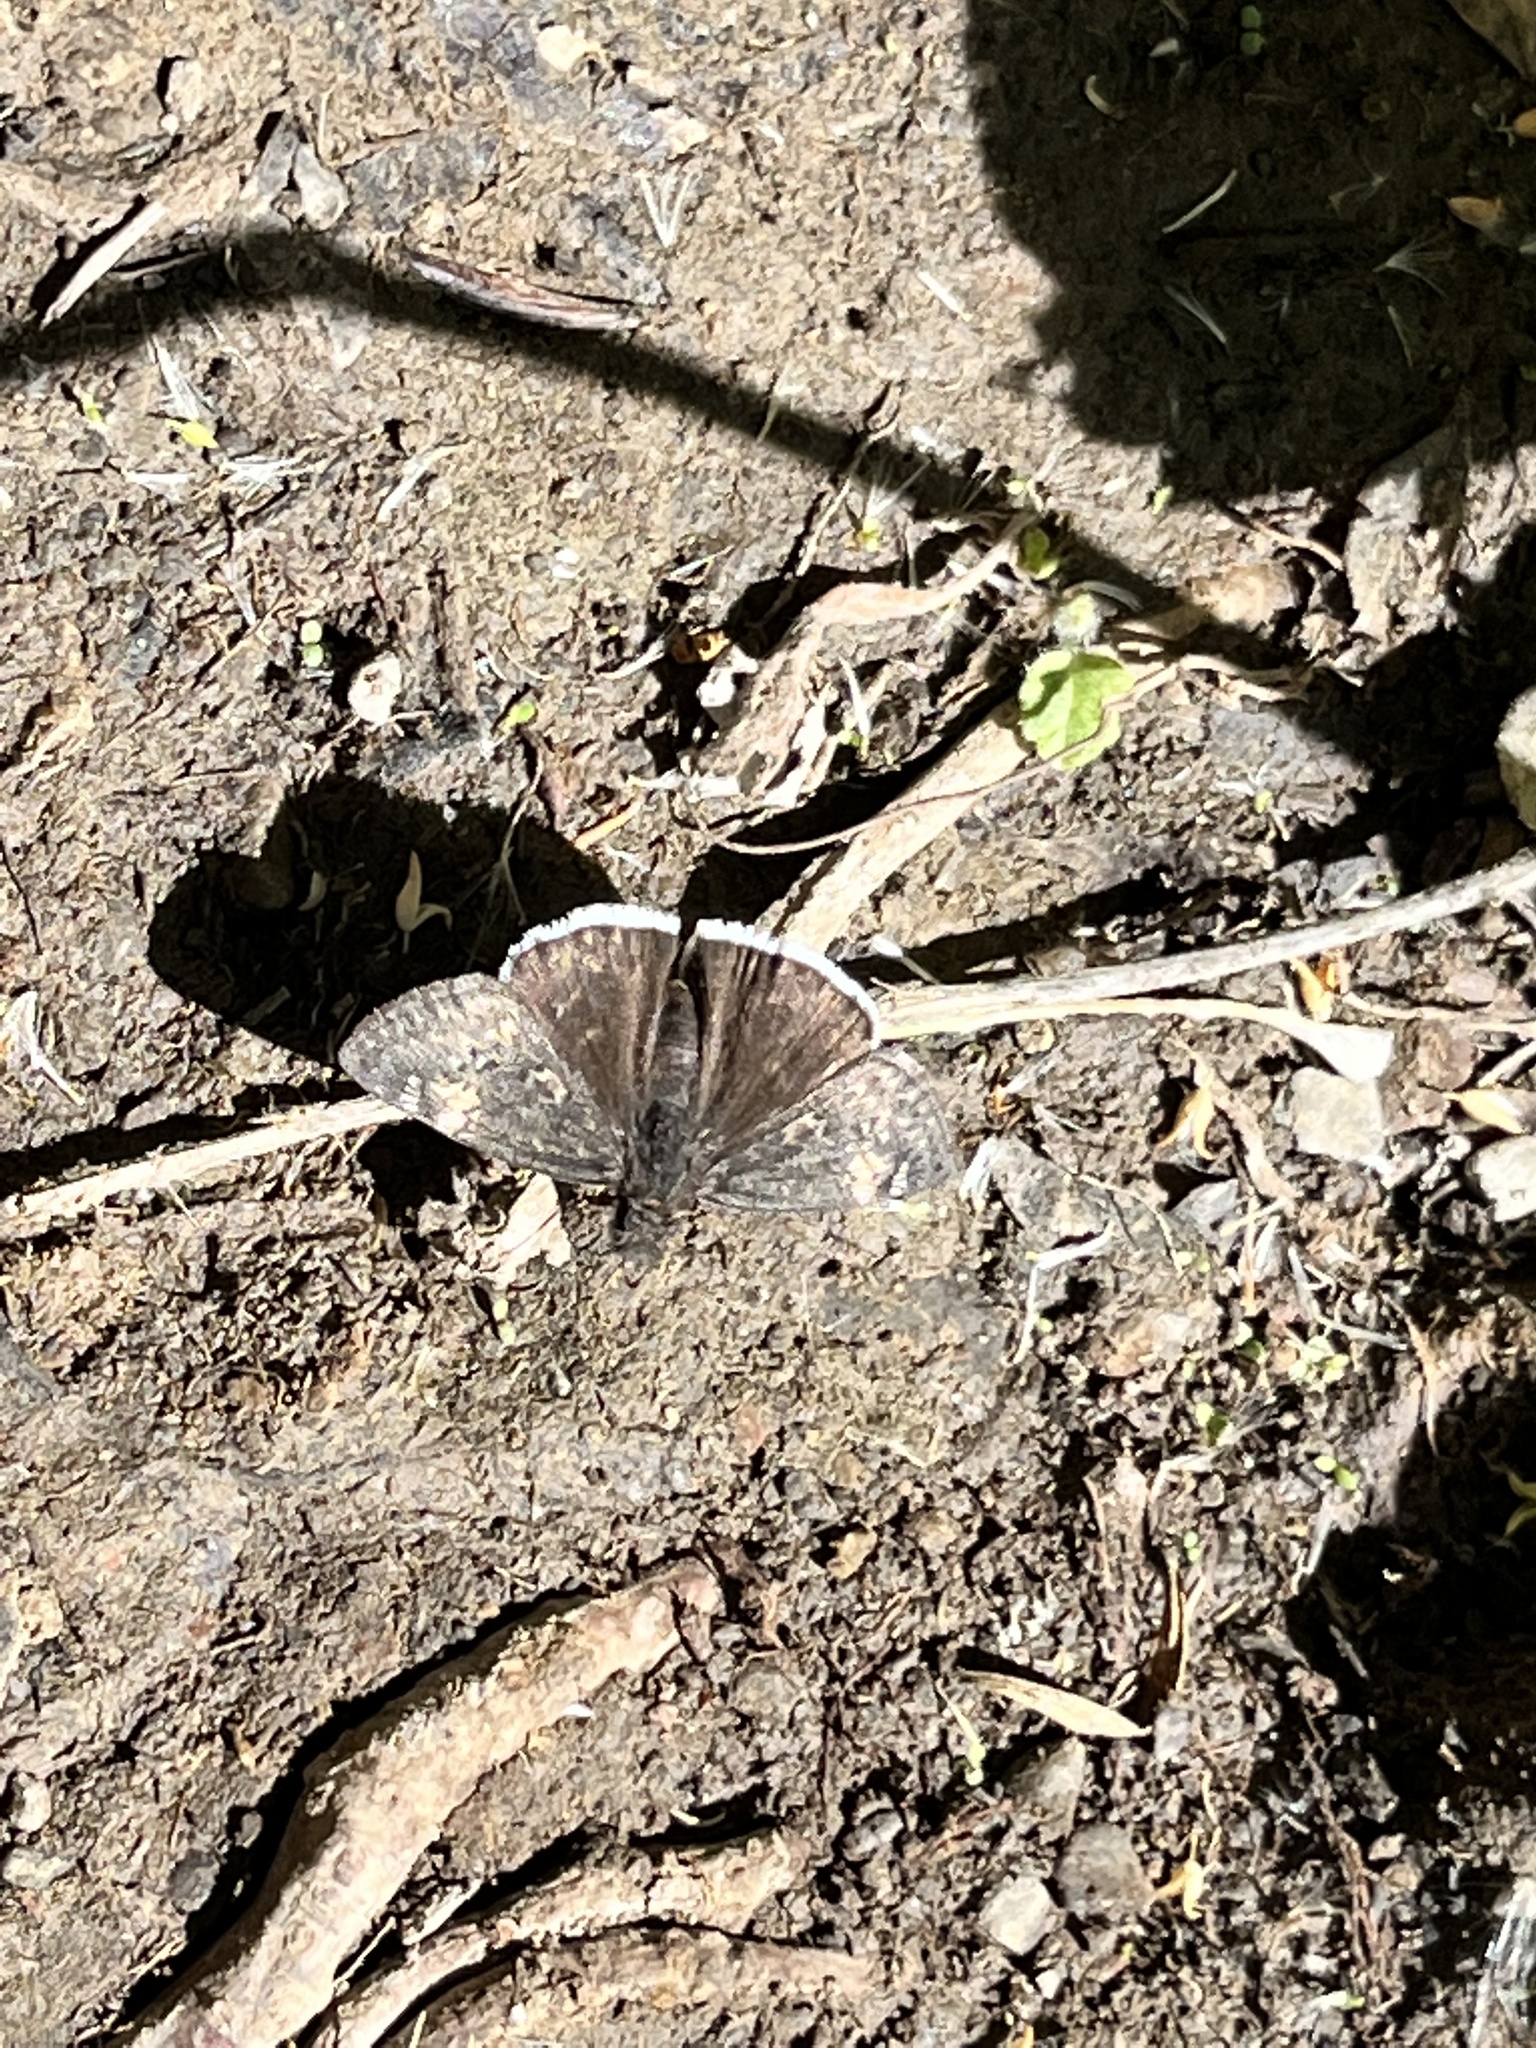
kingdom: Animalia
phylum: Arthropoda
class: Insecta
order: Lepidoptera
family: Hesperiidae
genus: Erynnis
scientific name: Erynnis funeralis
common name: Funereal duskywing
